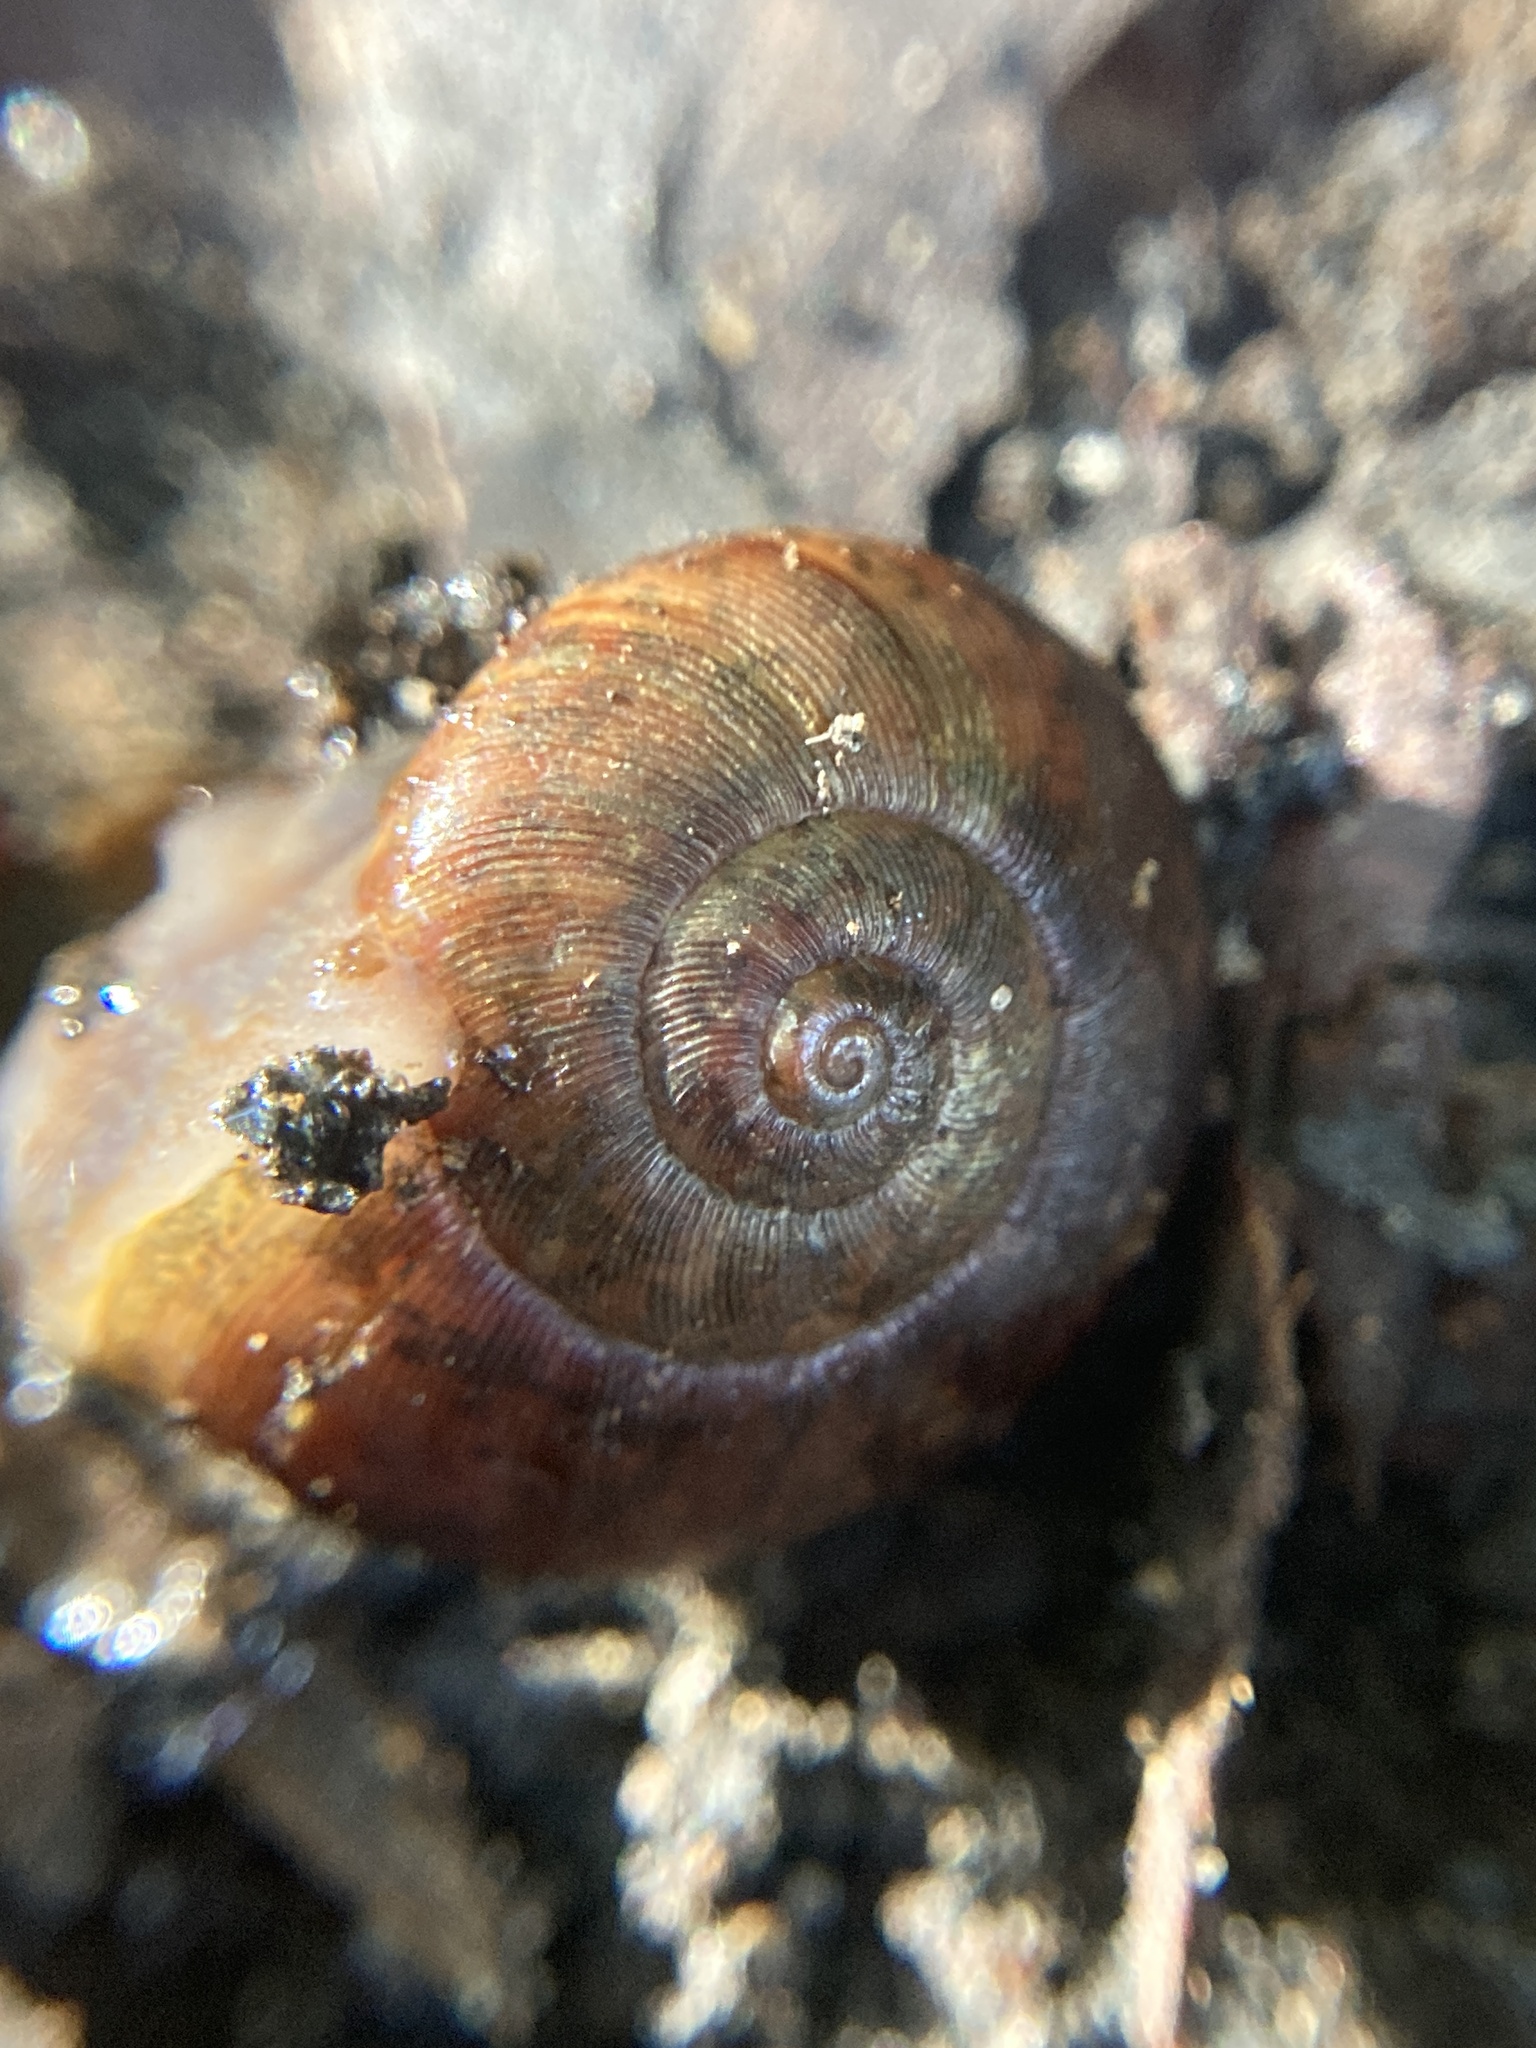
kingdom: Animalia
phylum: Mollusca
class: Gastropoda
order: Stylommatophora
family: Rhytididae
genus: Austrorhytida
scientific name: Austrorhytida capillacea
